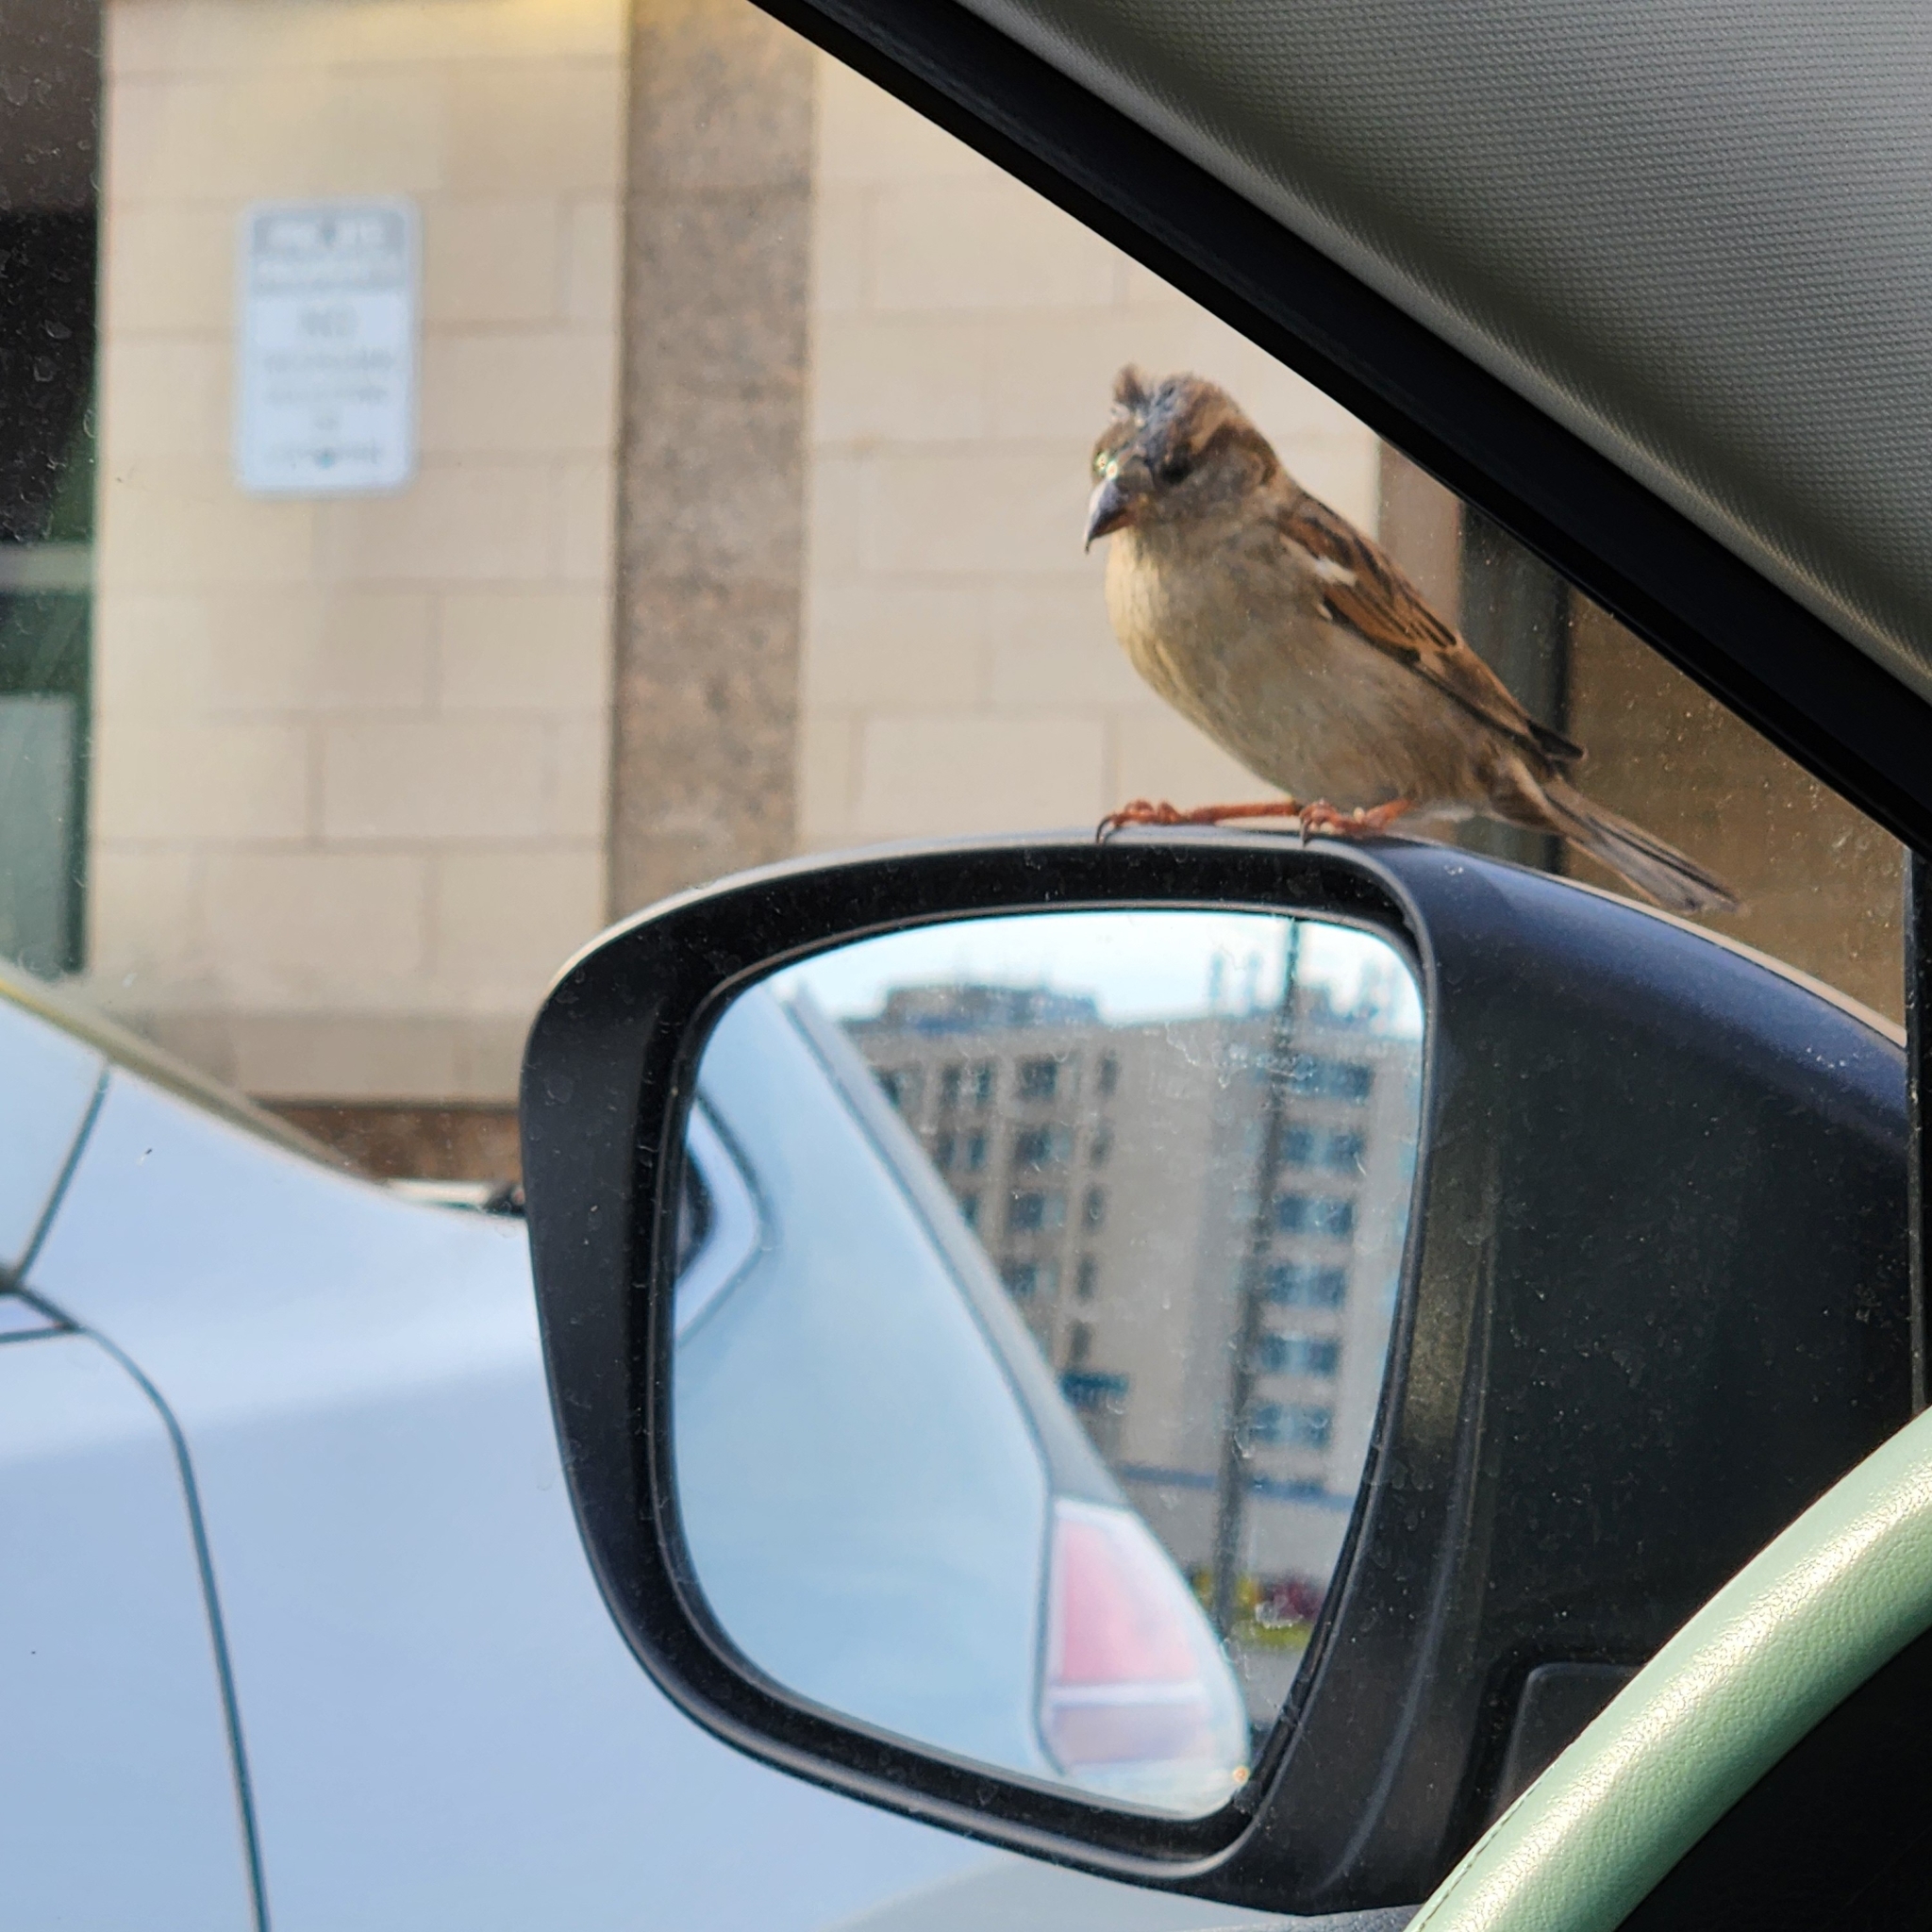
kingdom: Animalia
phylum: Chordata
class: Aves
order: Passeriformes
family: Passeridae
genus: Passer
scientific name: Passer domesticus
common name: House sparrow
